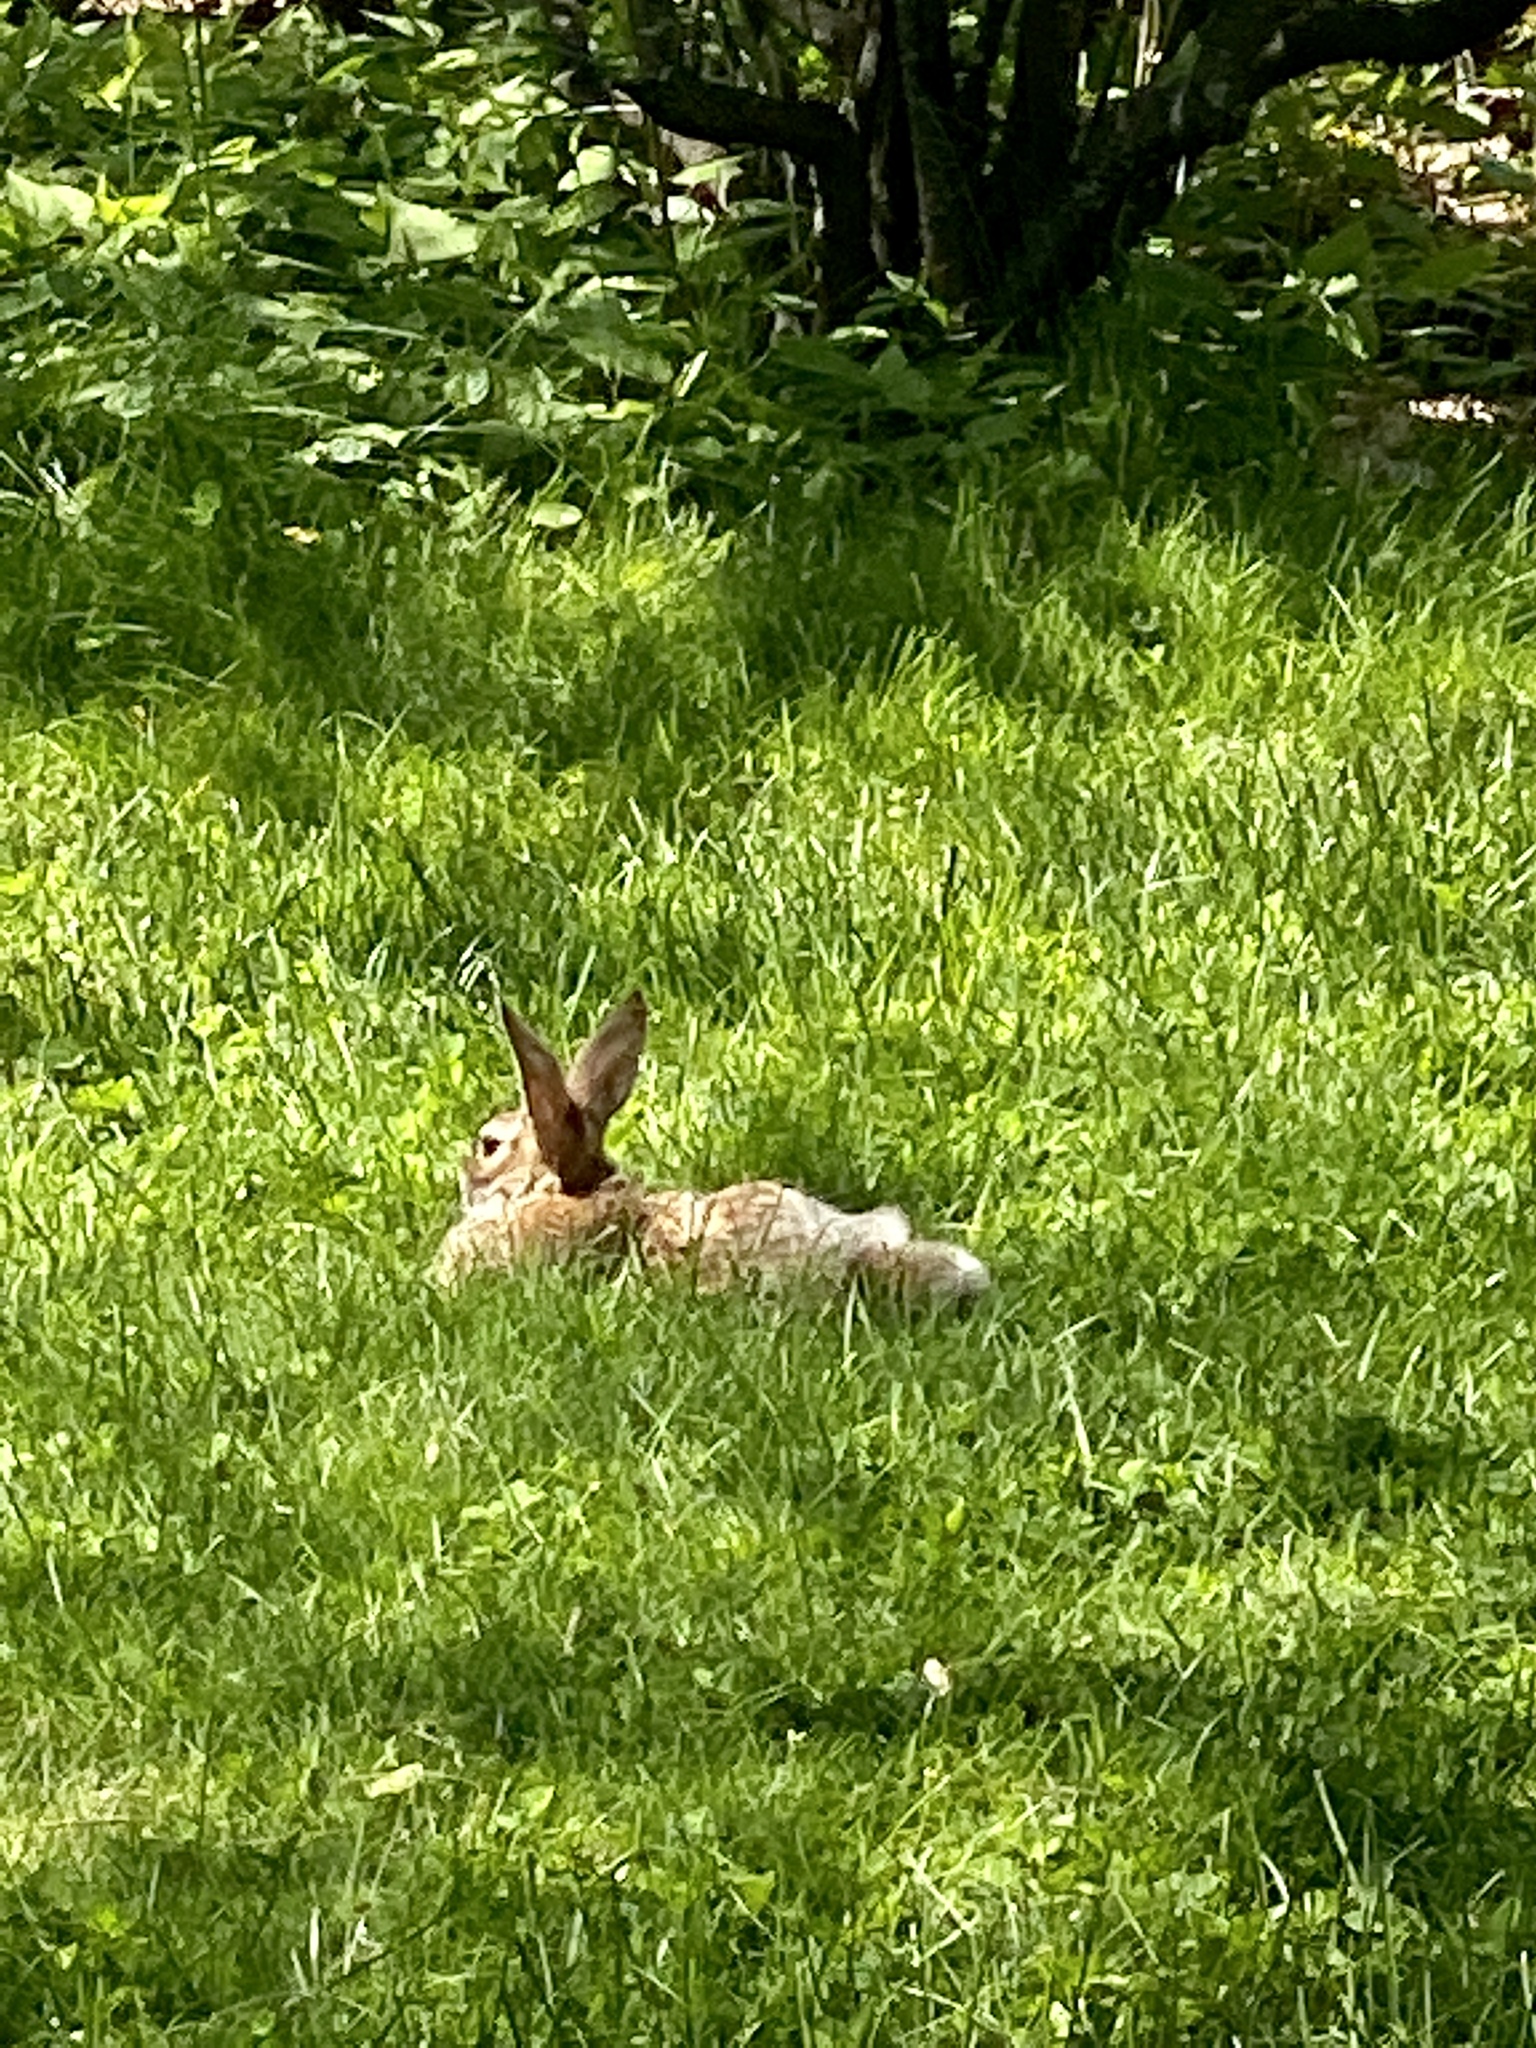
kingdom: Animalia
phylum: Chordata
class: Mammalia
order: Lagomorpha
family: Leporidae
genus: Sylvilagus
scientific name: Sylvilagus floridanus
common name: Eastern cottontail
